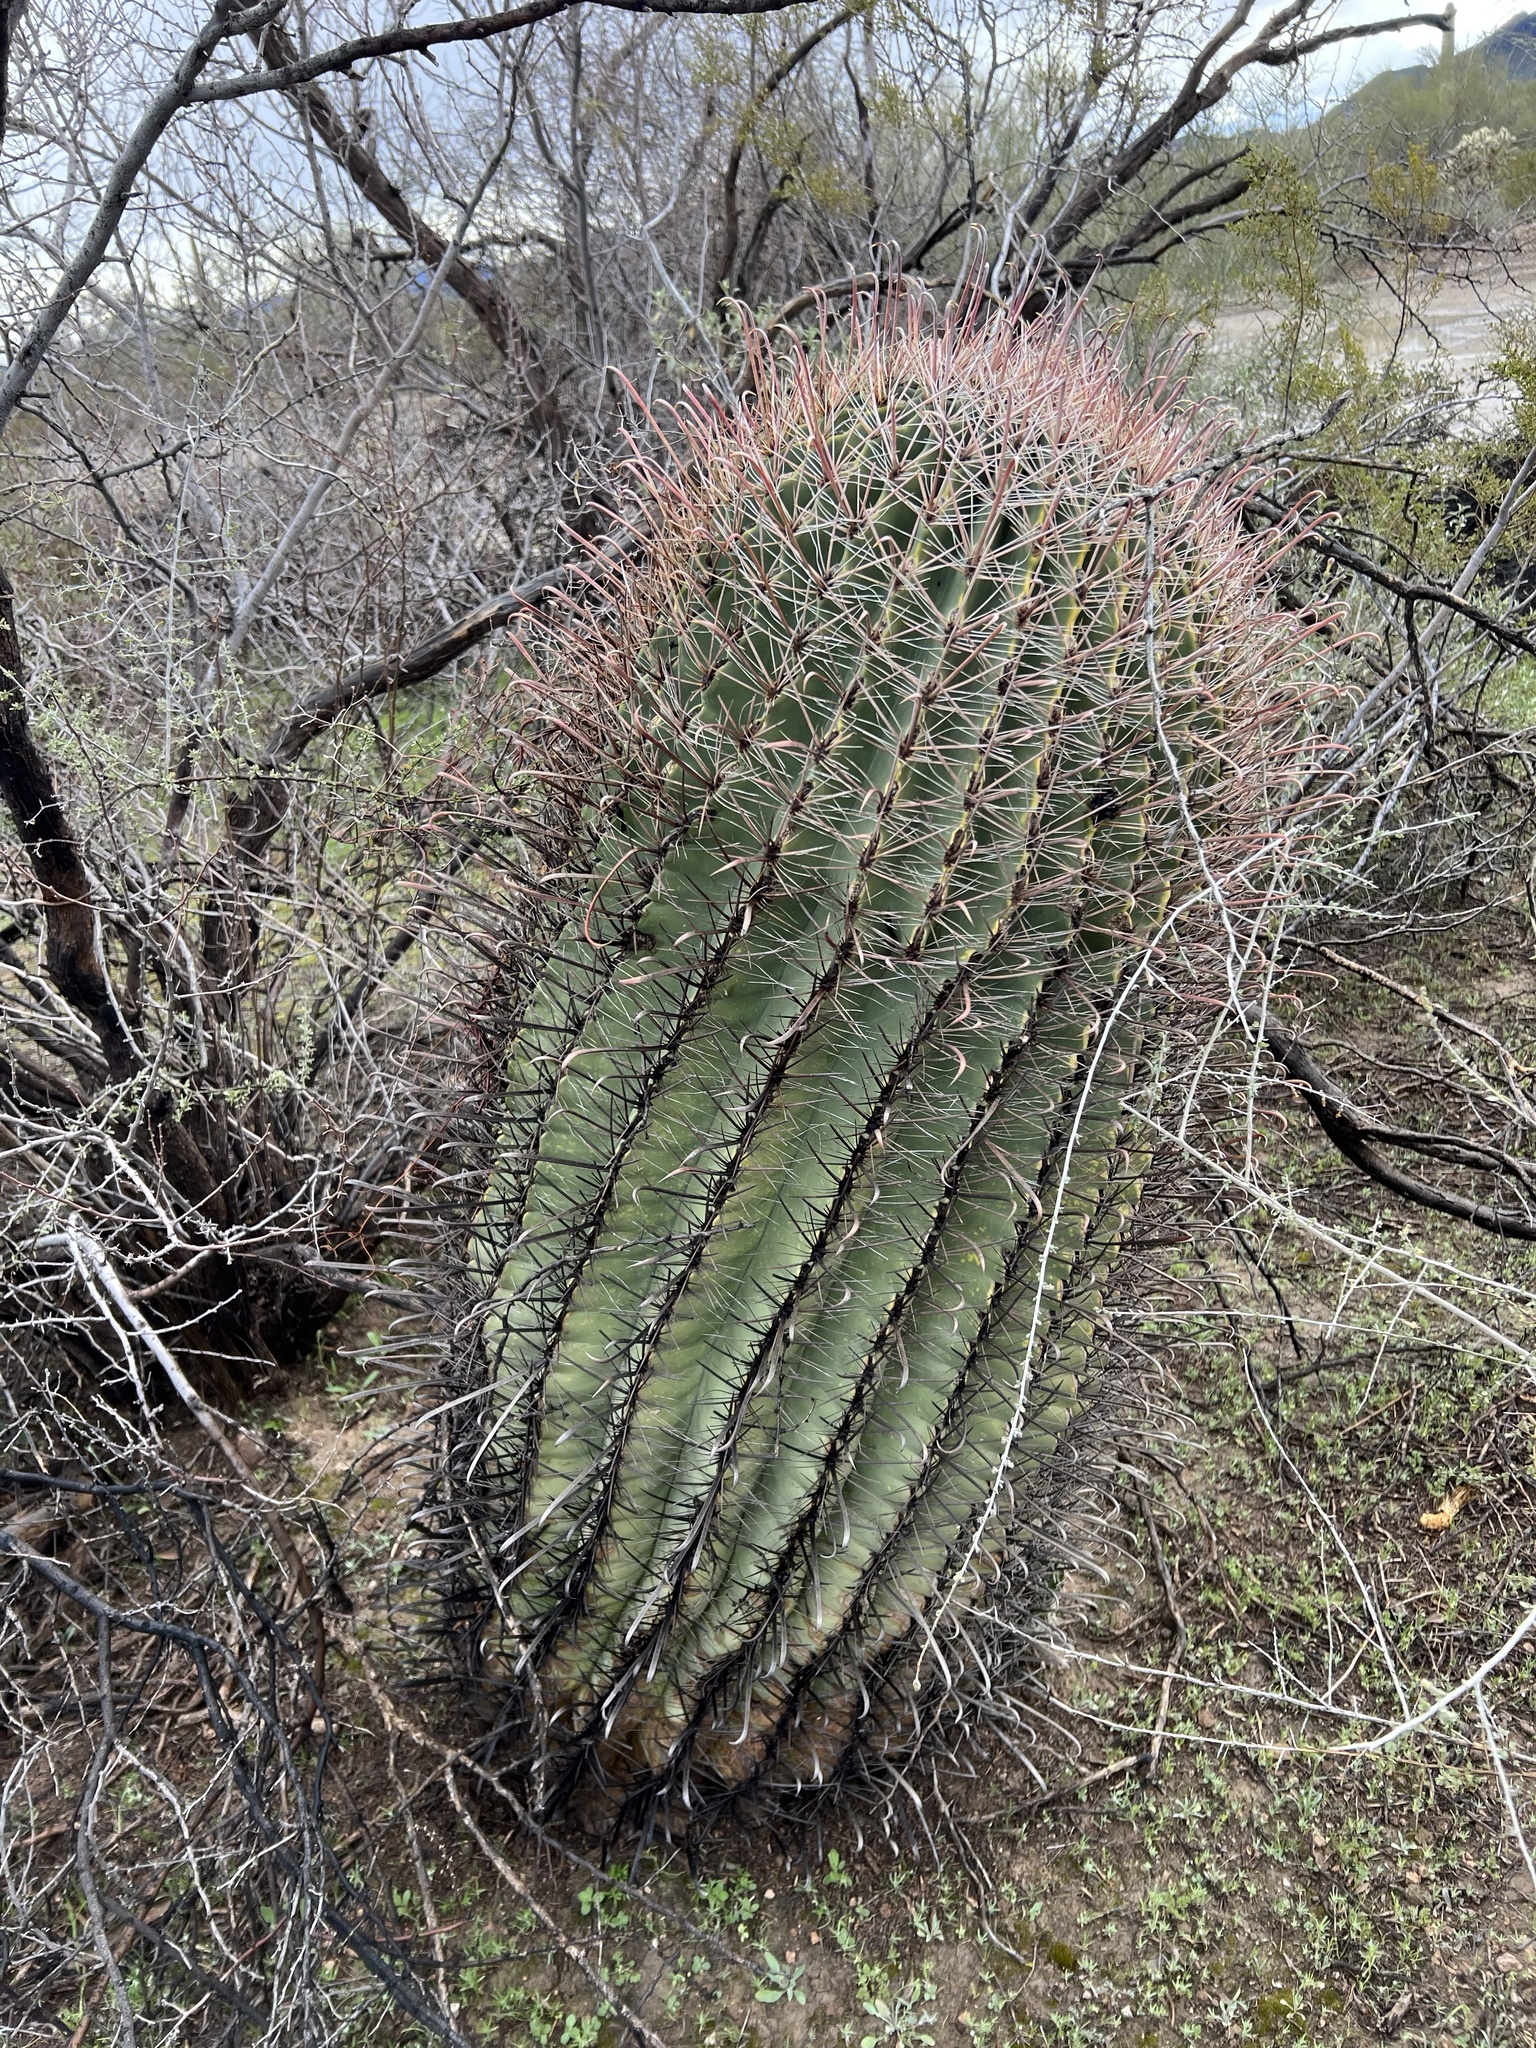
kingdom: Plantae
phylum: Tracheophyta
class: Magnoliopsida
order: Caryophyllales
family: Cactaceae
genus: Ferocactus
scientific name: Ferocactus wislizeni
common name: Candy barrel cactus
